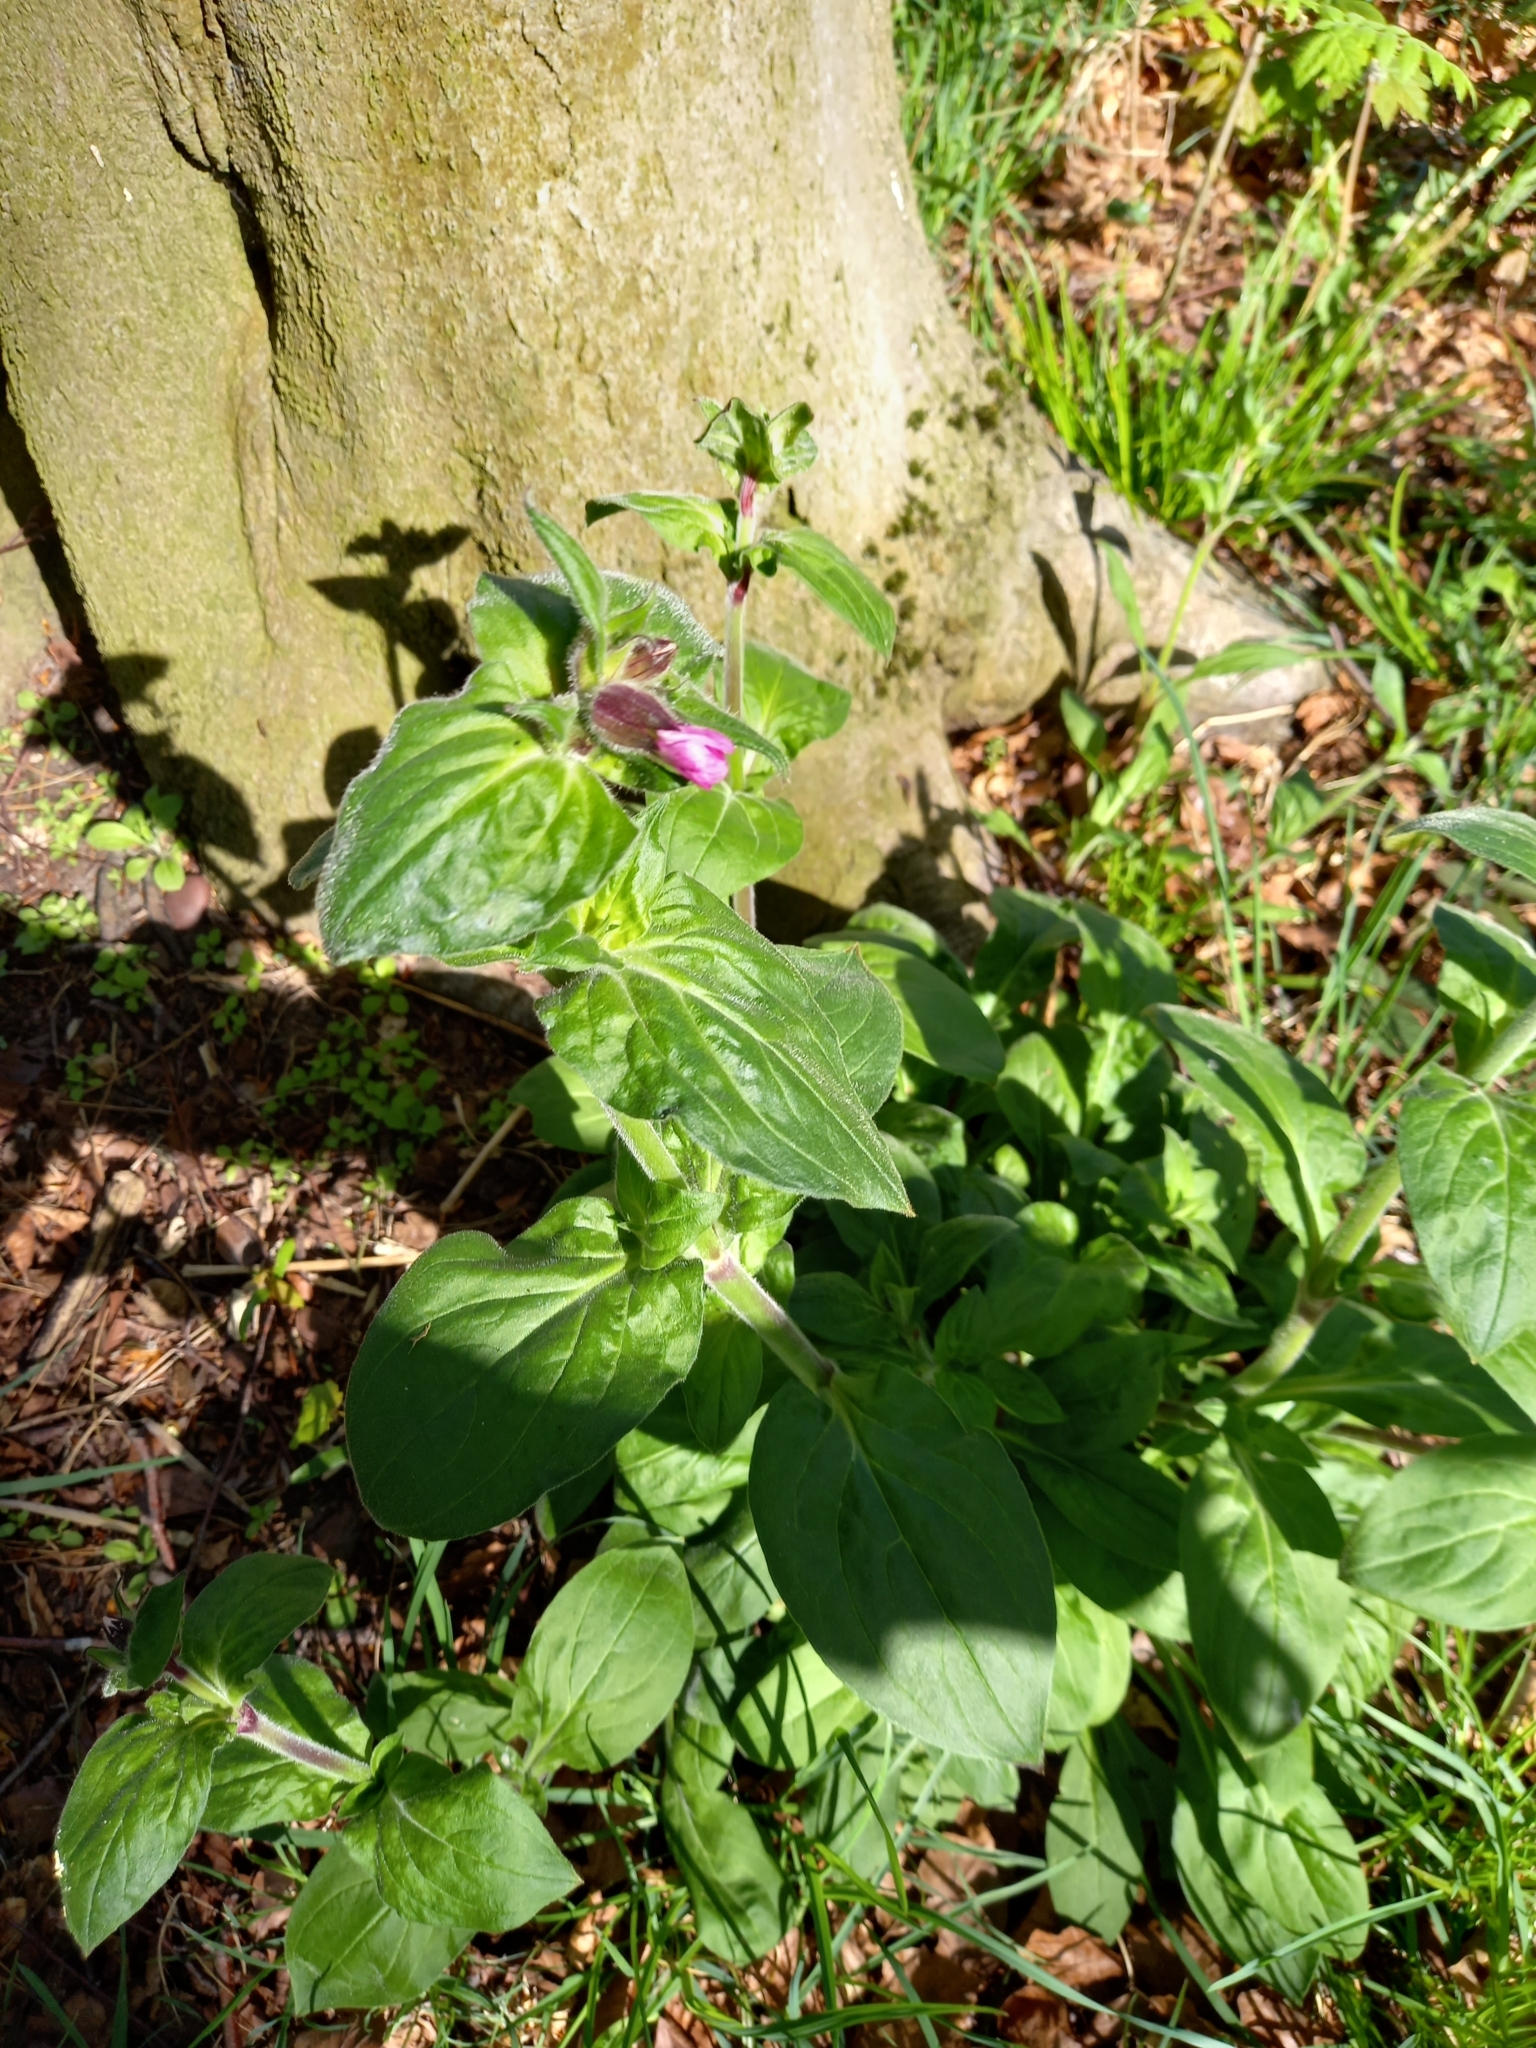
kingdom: Plantae
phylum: Tracheophyta
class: Magnoliopsida
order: Caryophyllales
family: Caryophyllaceae
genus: Silene
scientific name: Silene dioica
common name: Red campion
